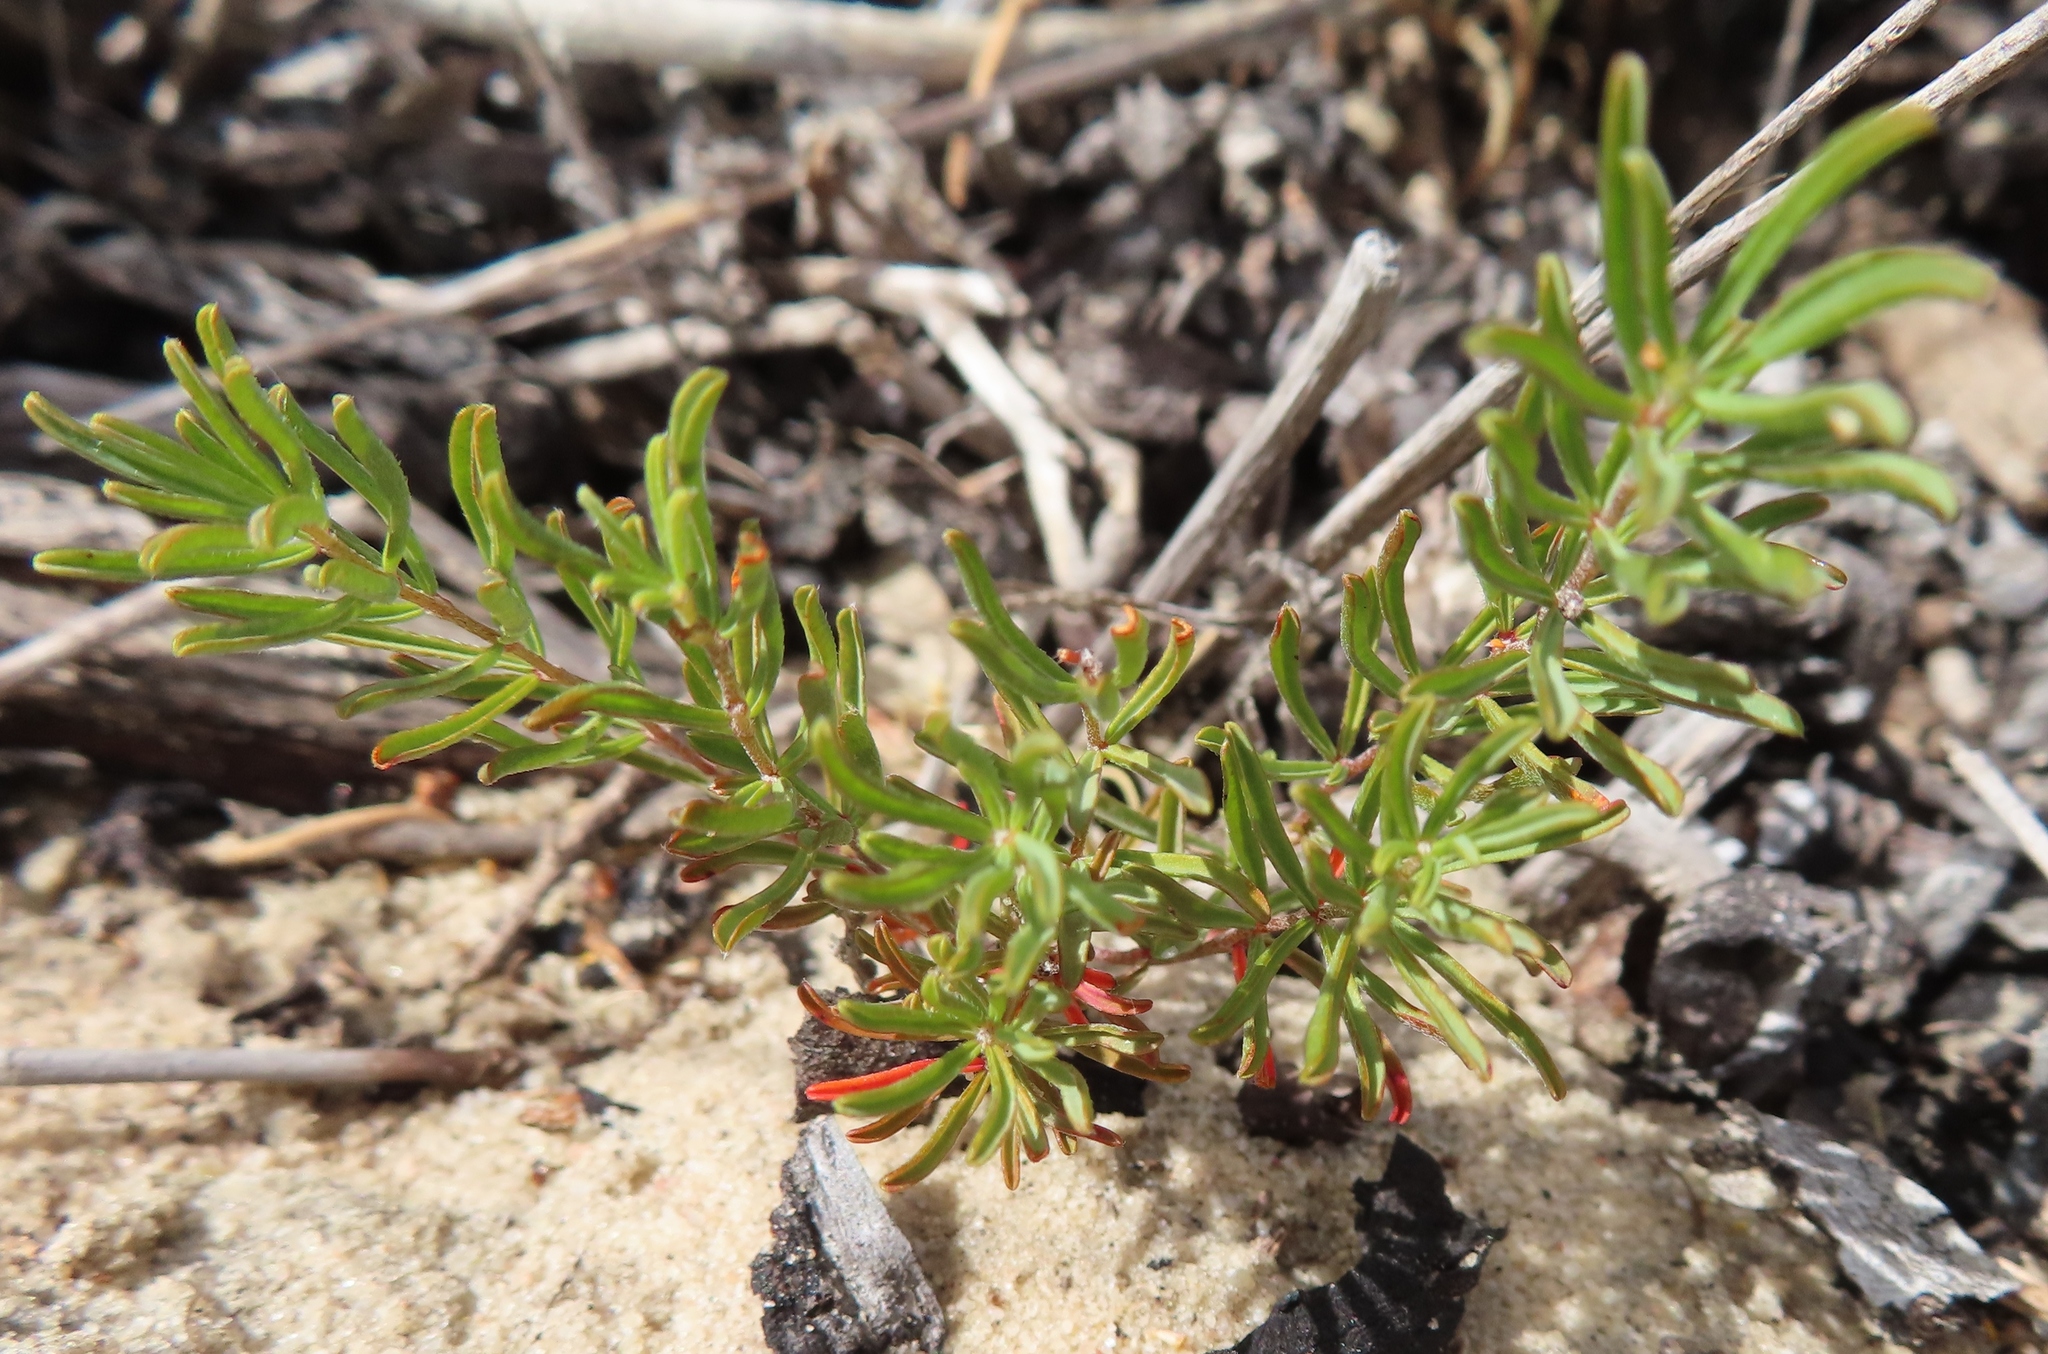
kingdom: Plantae
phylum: Tracheophyta
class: Magnoliopsida
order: Oxalidales
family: Oxalidaceae
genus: Oxalis
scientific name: Oxalis hirta
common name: Tropical woodsorrel
